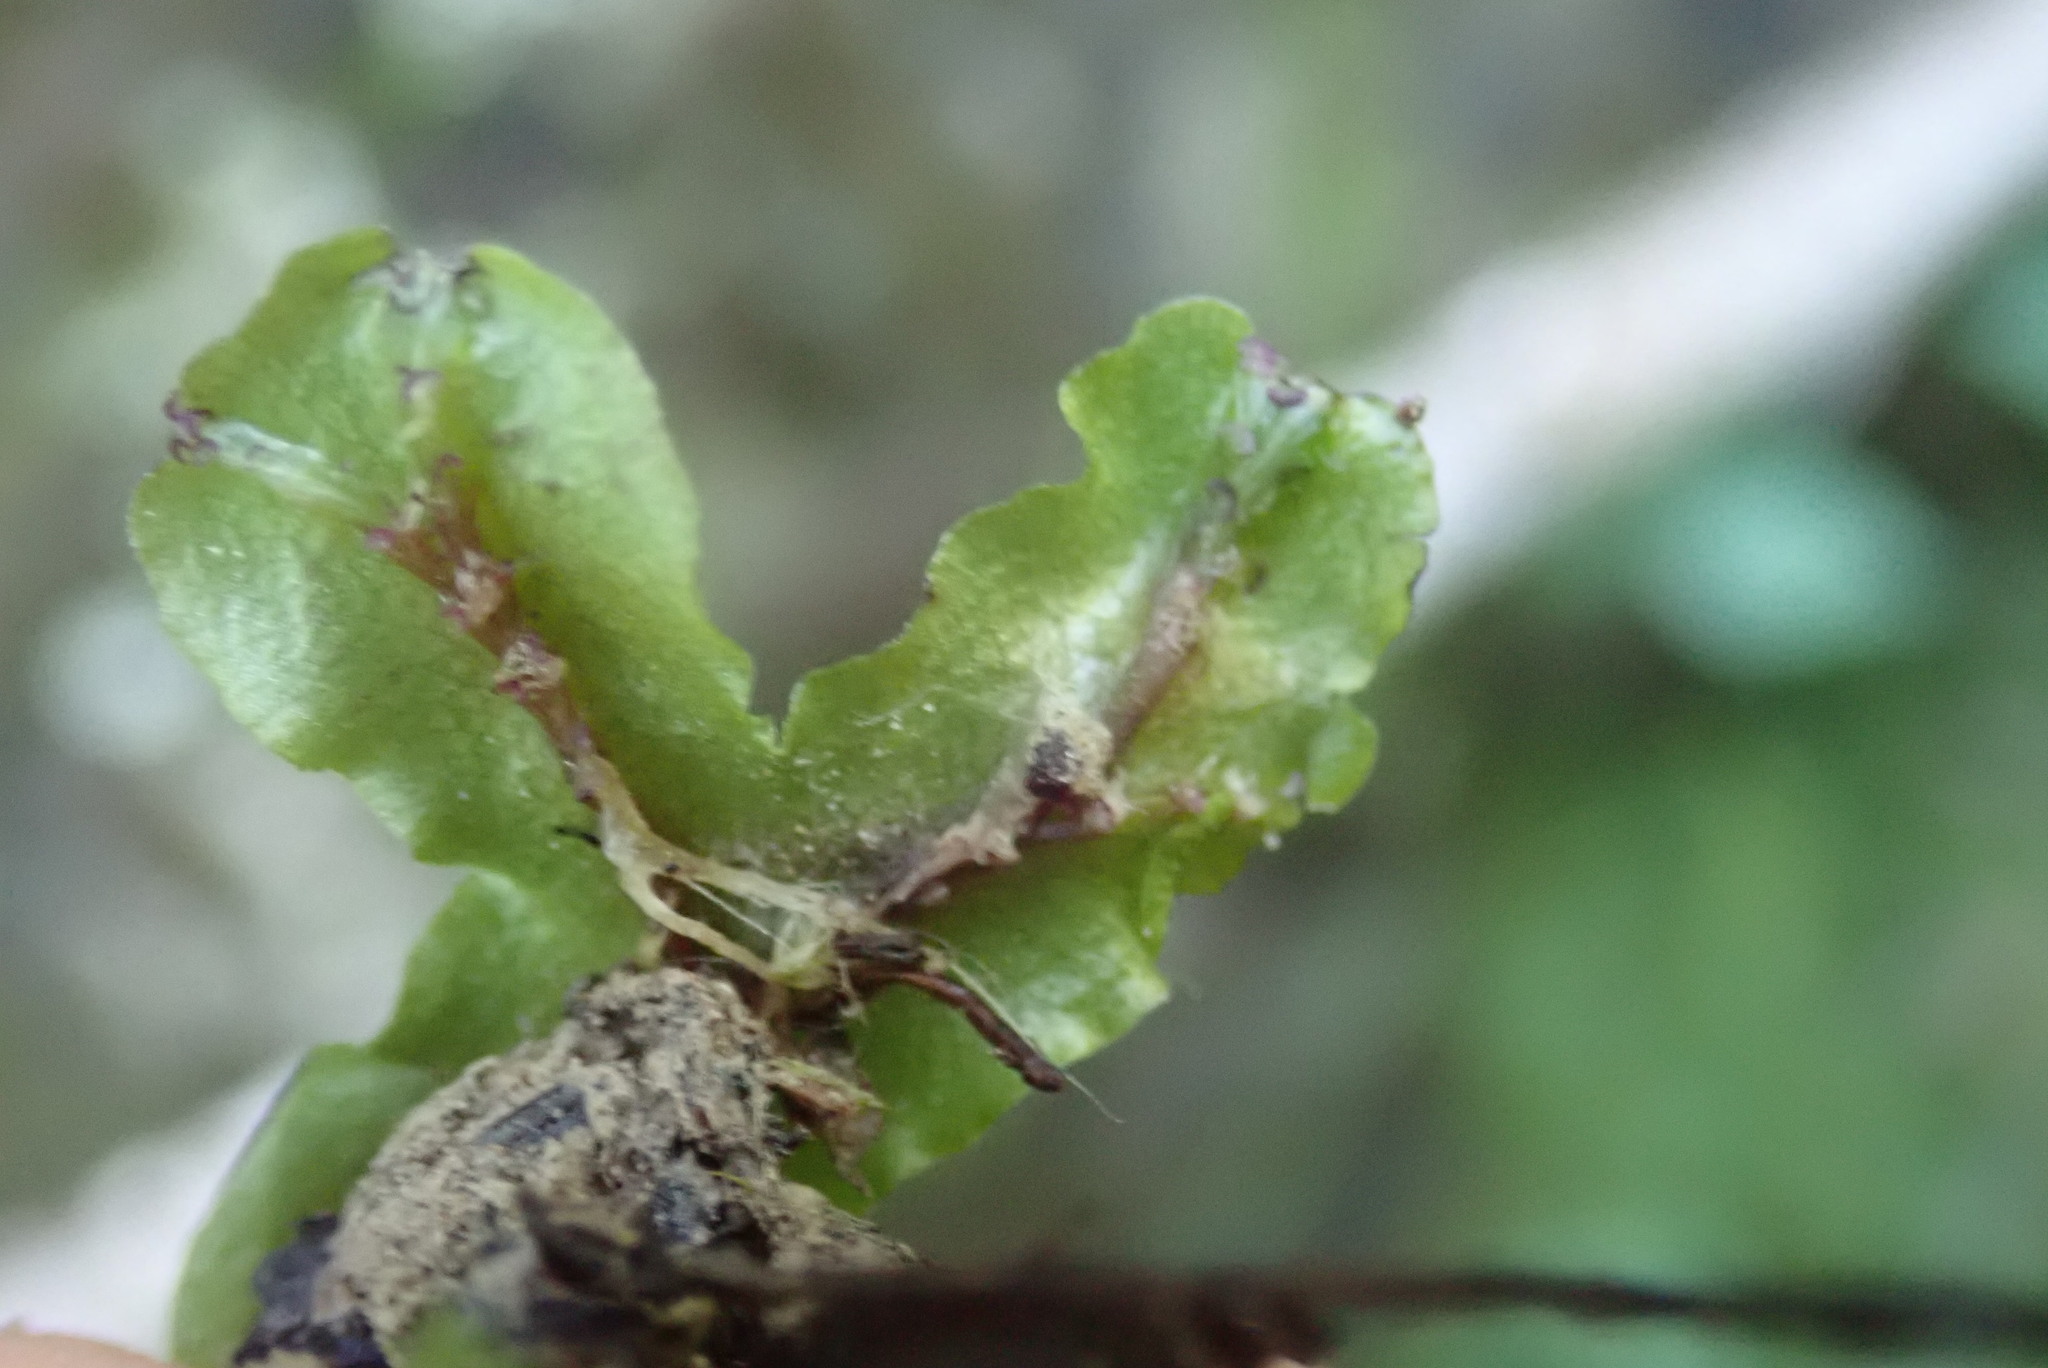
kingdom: Plantae
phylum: Marchantiophyta
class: Marchantiopsida
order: Marchantiales
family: Conocephalaceae
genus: Conocephalum
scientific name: Conocephalum salebrosum
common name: Cat-tongue liverwort
